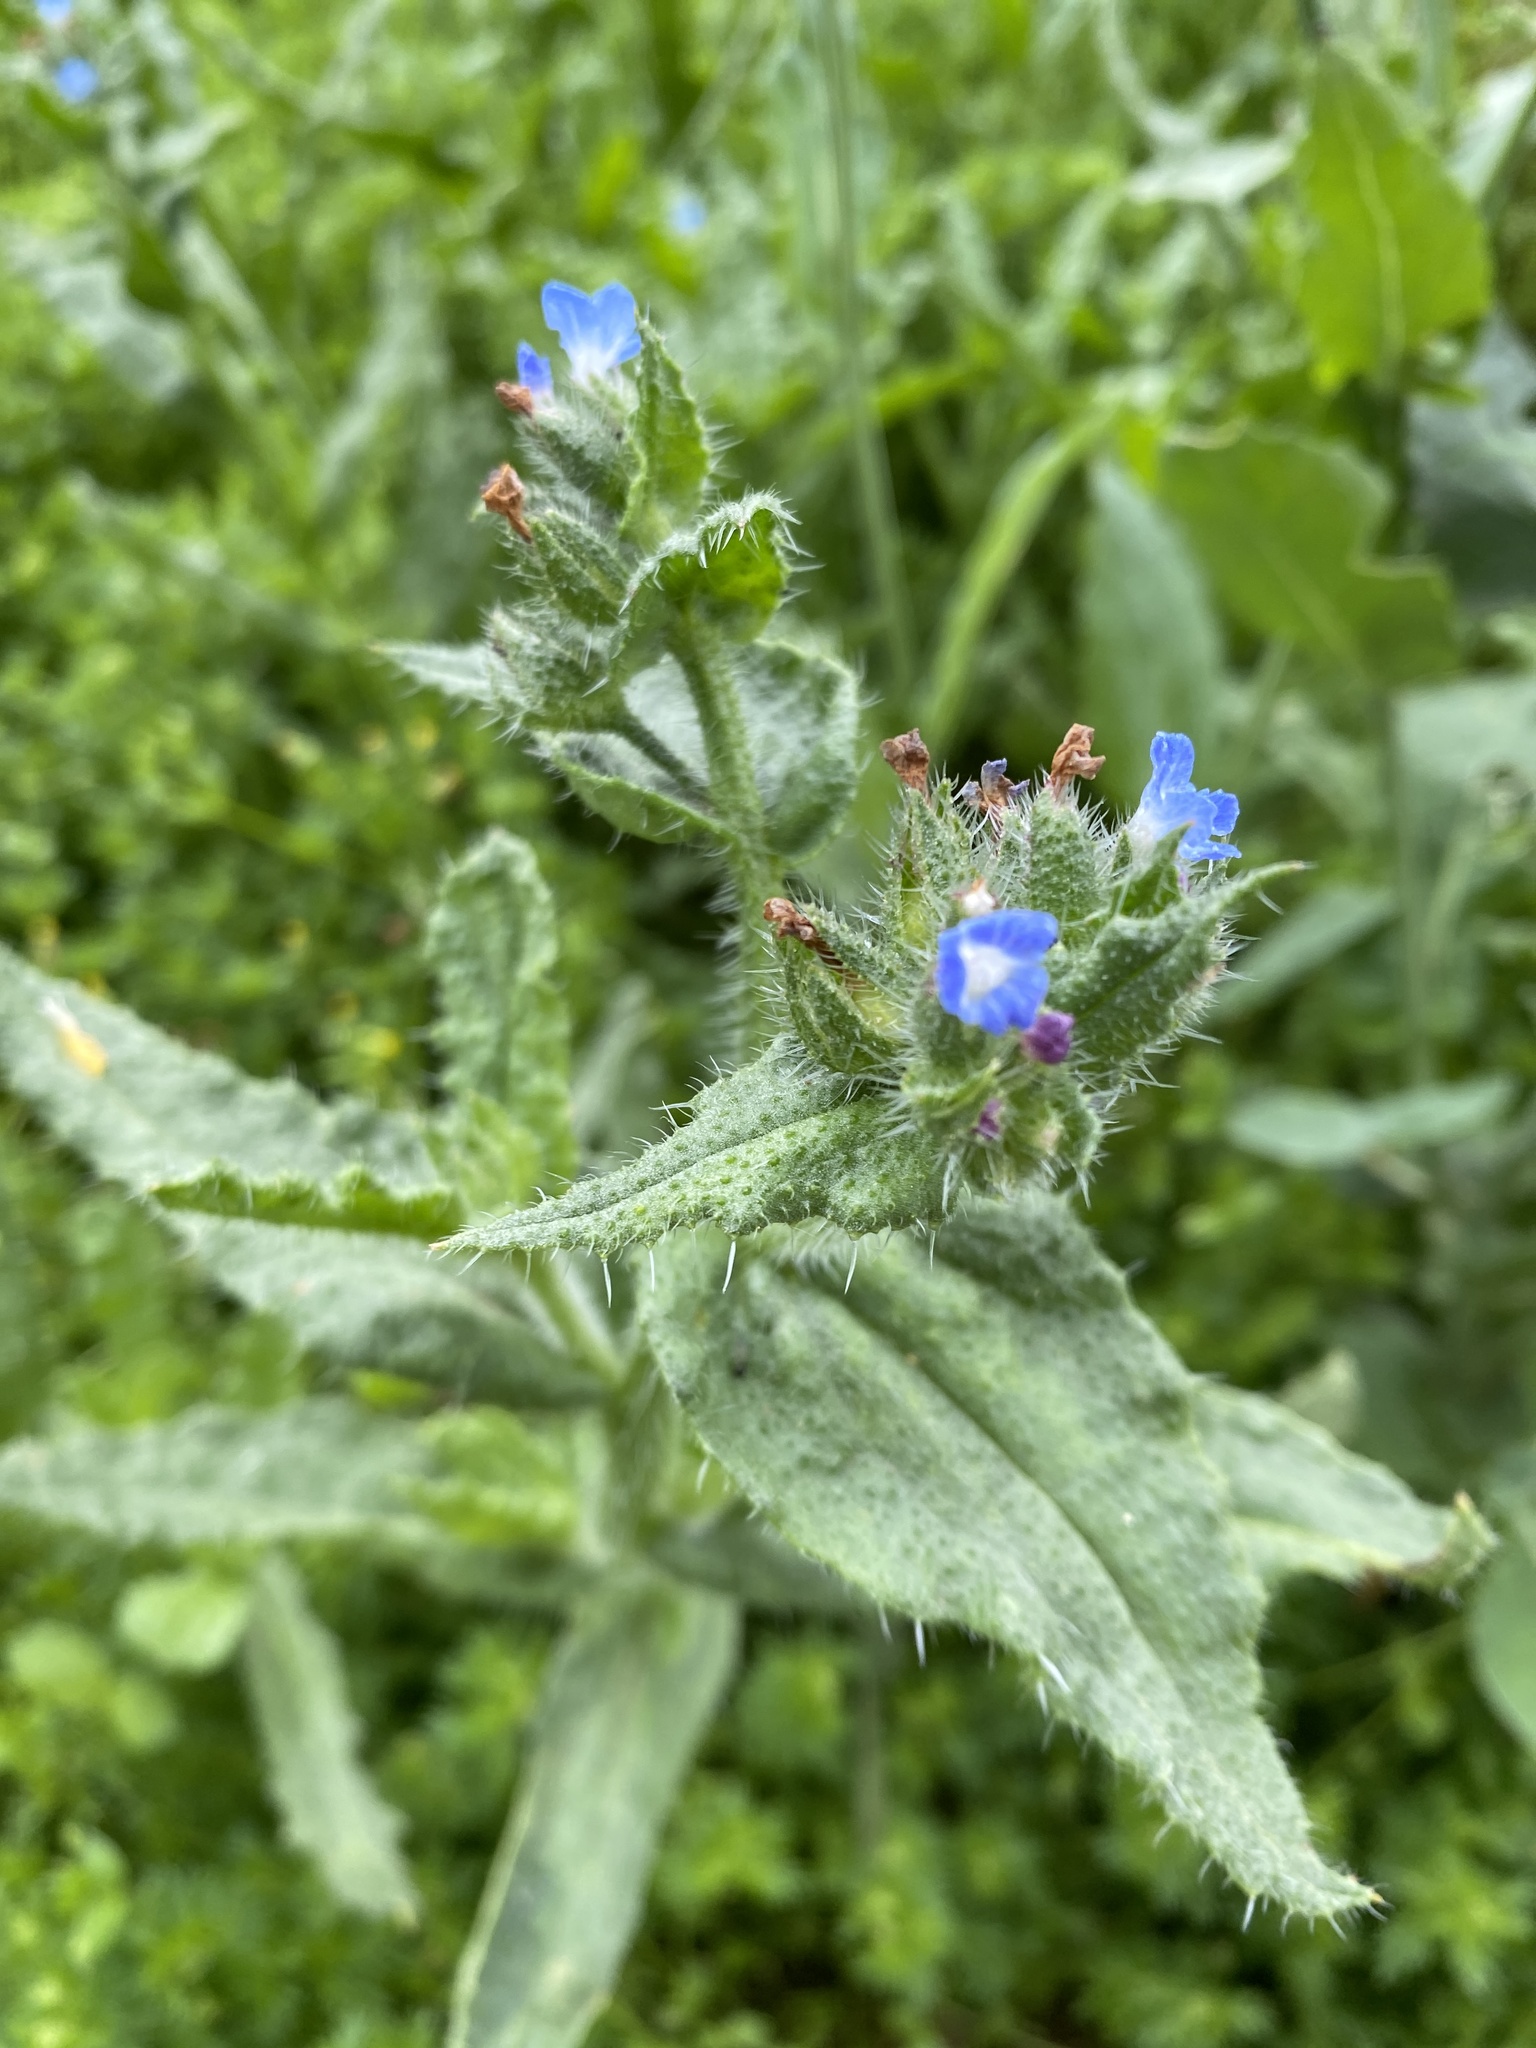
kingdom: Plantae
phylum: Tracheophyta
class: Magnoliopsida
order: Boraginales
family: Boraginaceae
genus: Lycopsis
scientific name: Lycopsis arvensis
